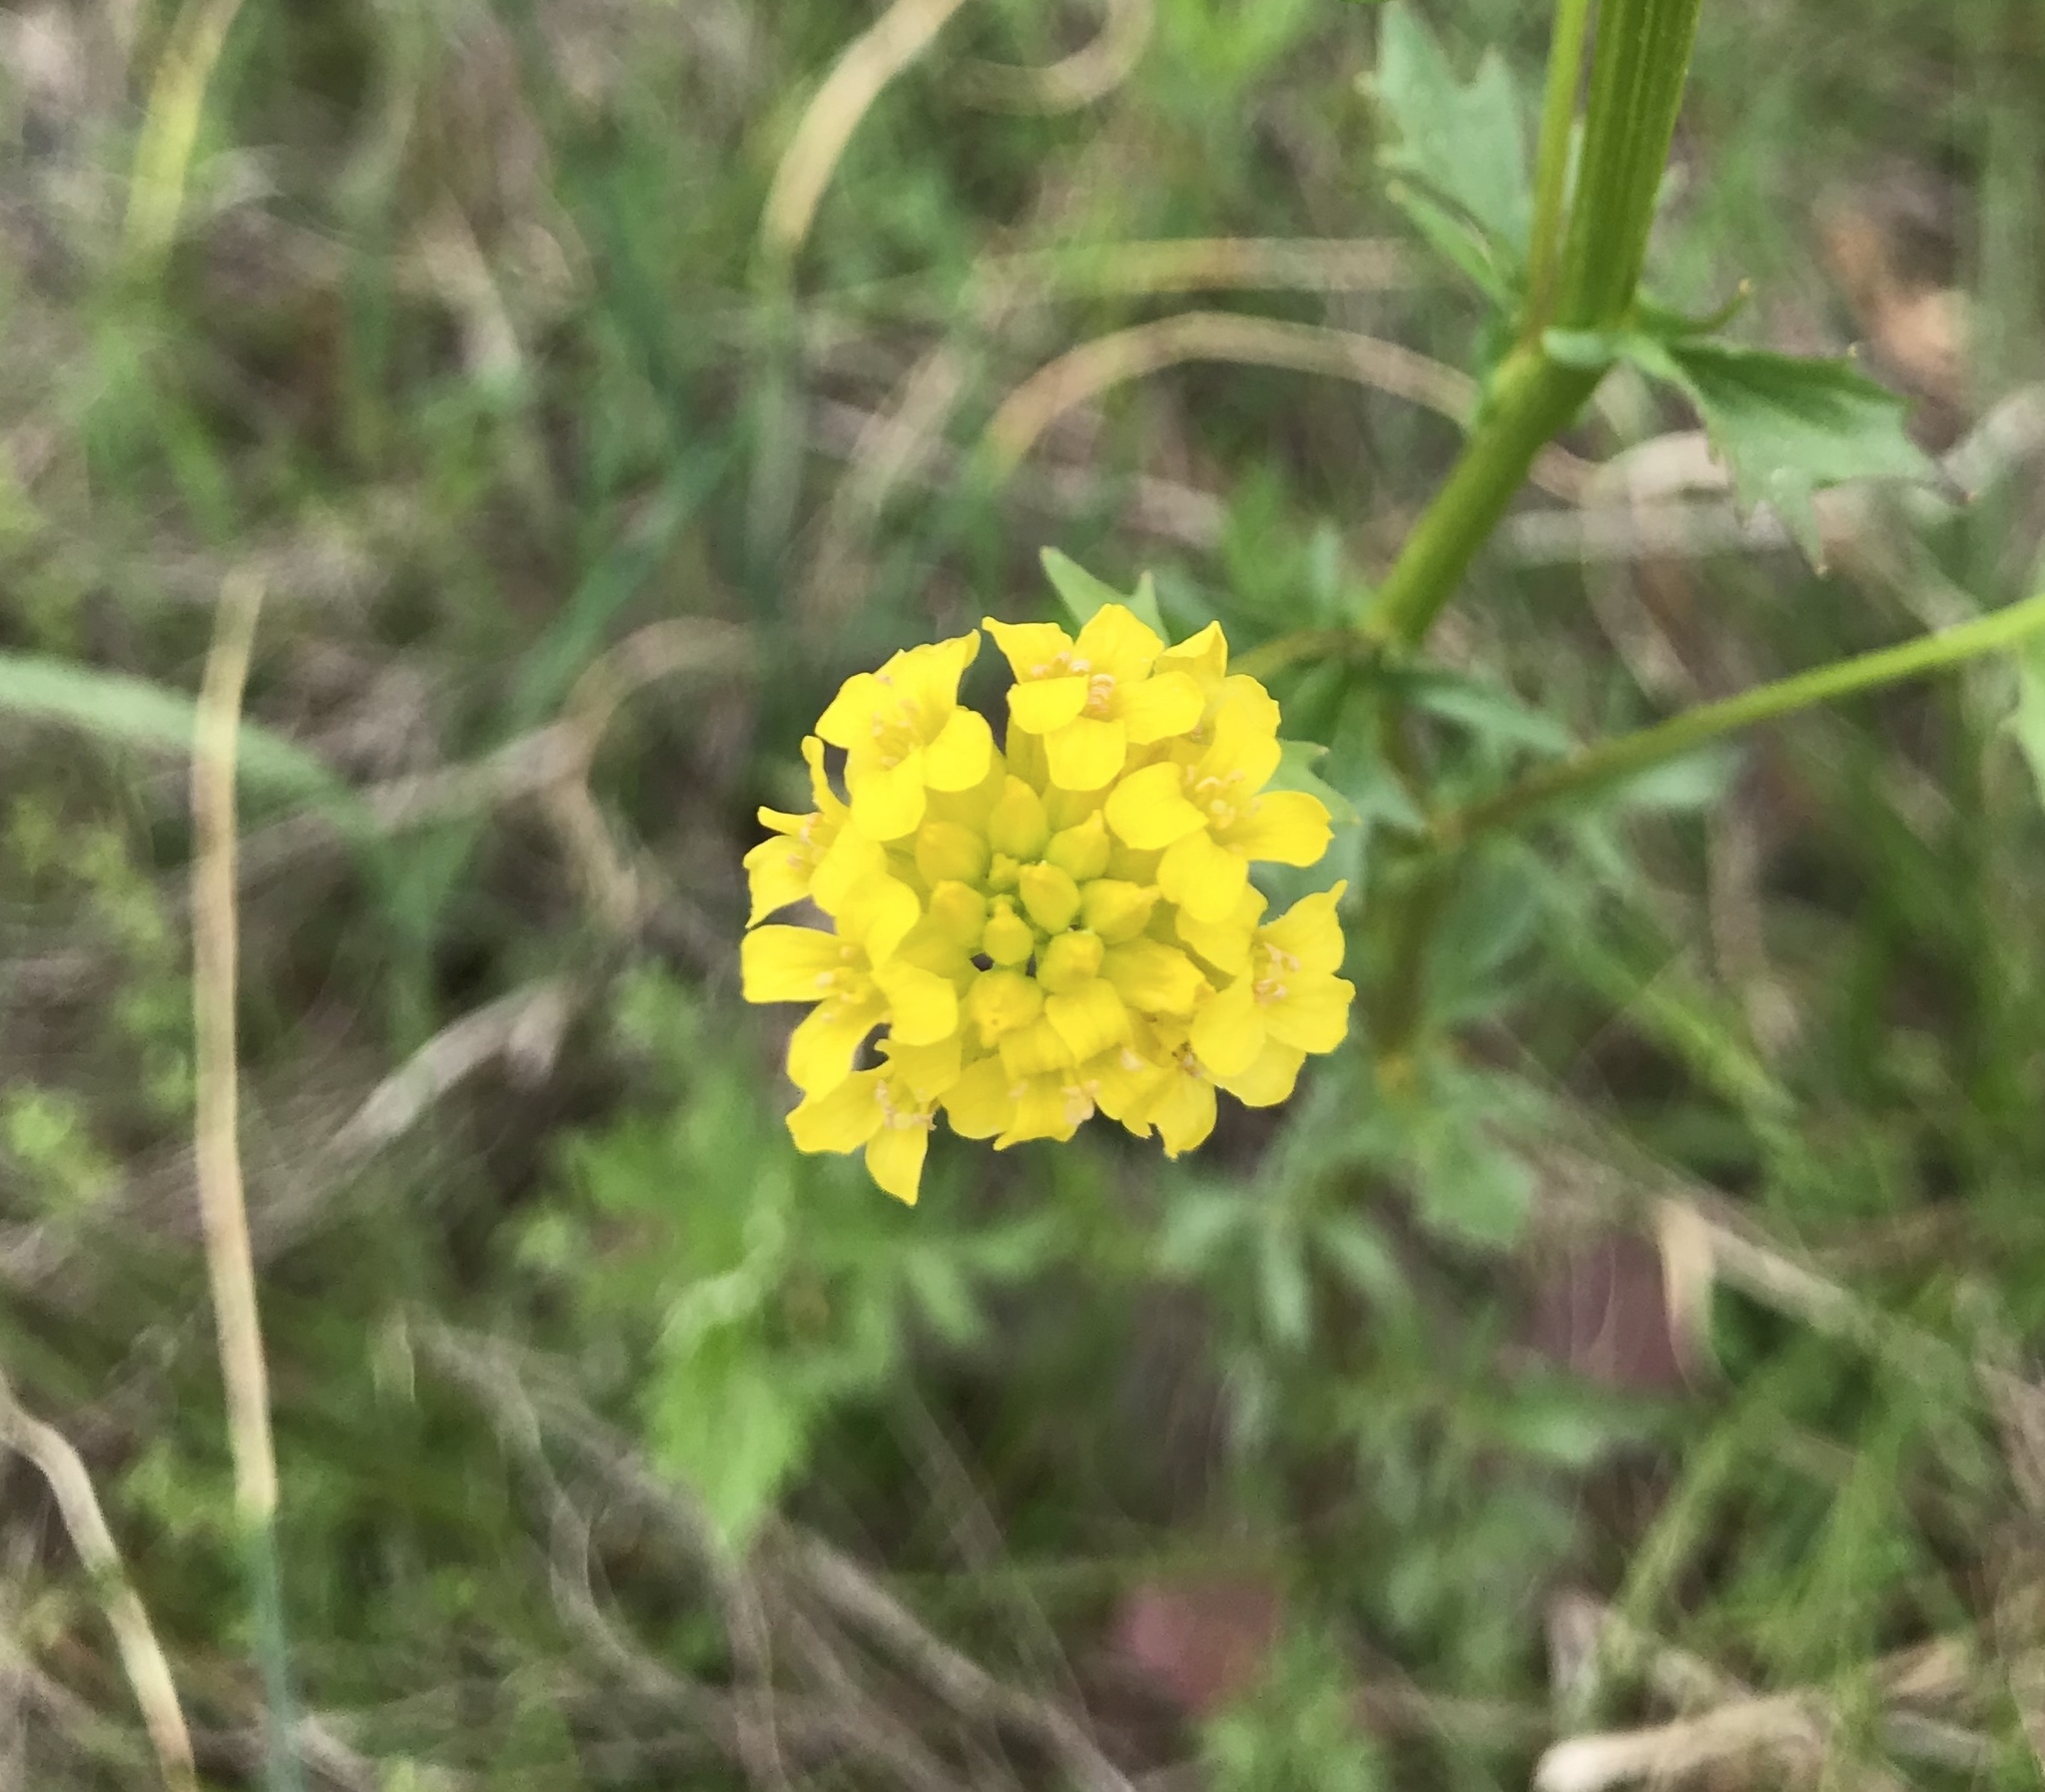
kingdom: Plantae
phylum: Tracheophyta
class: Magnoliopsida
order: Brassicales
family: Brassicaceae
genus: Barbarea
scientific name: Barbarea vulgaris
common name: Cressy-greens
